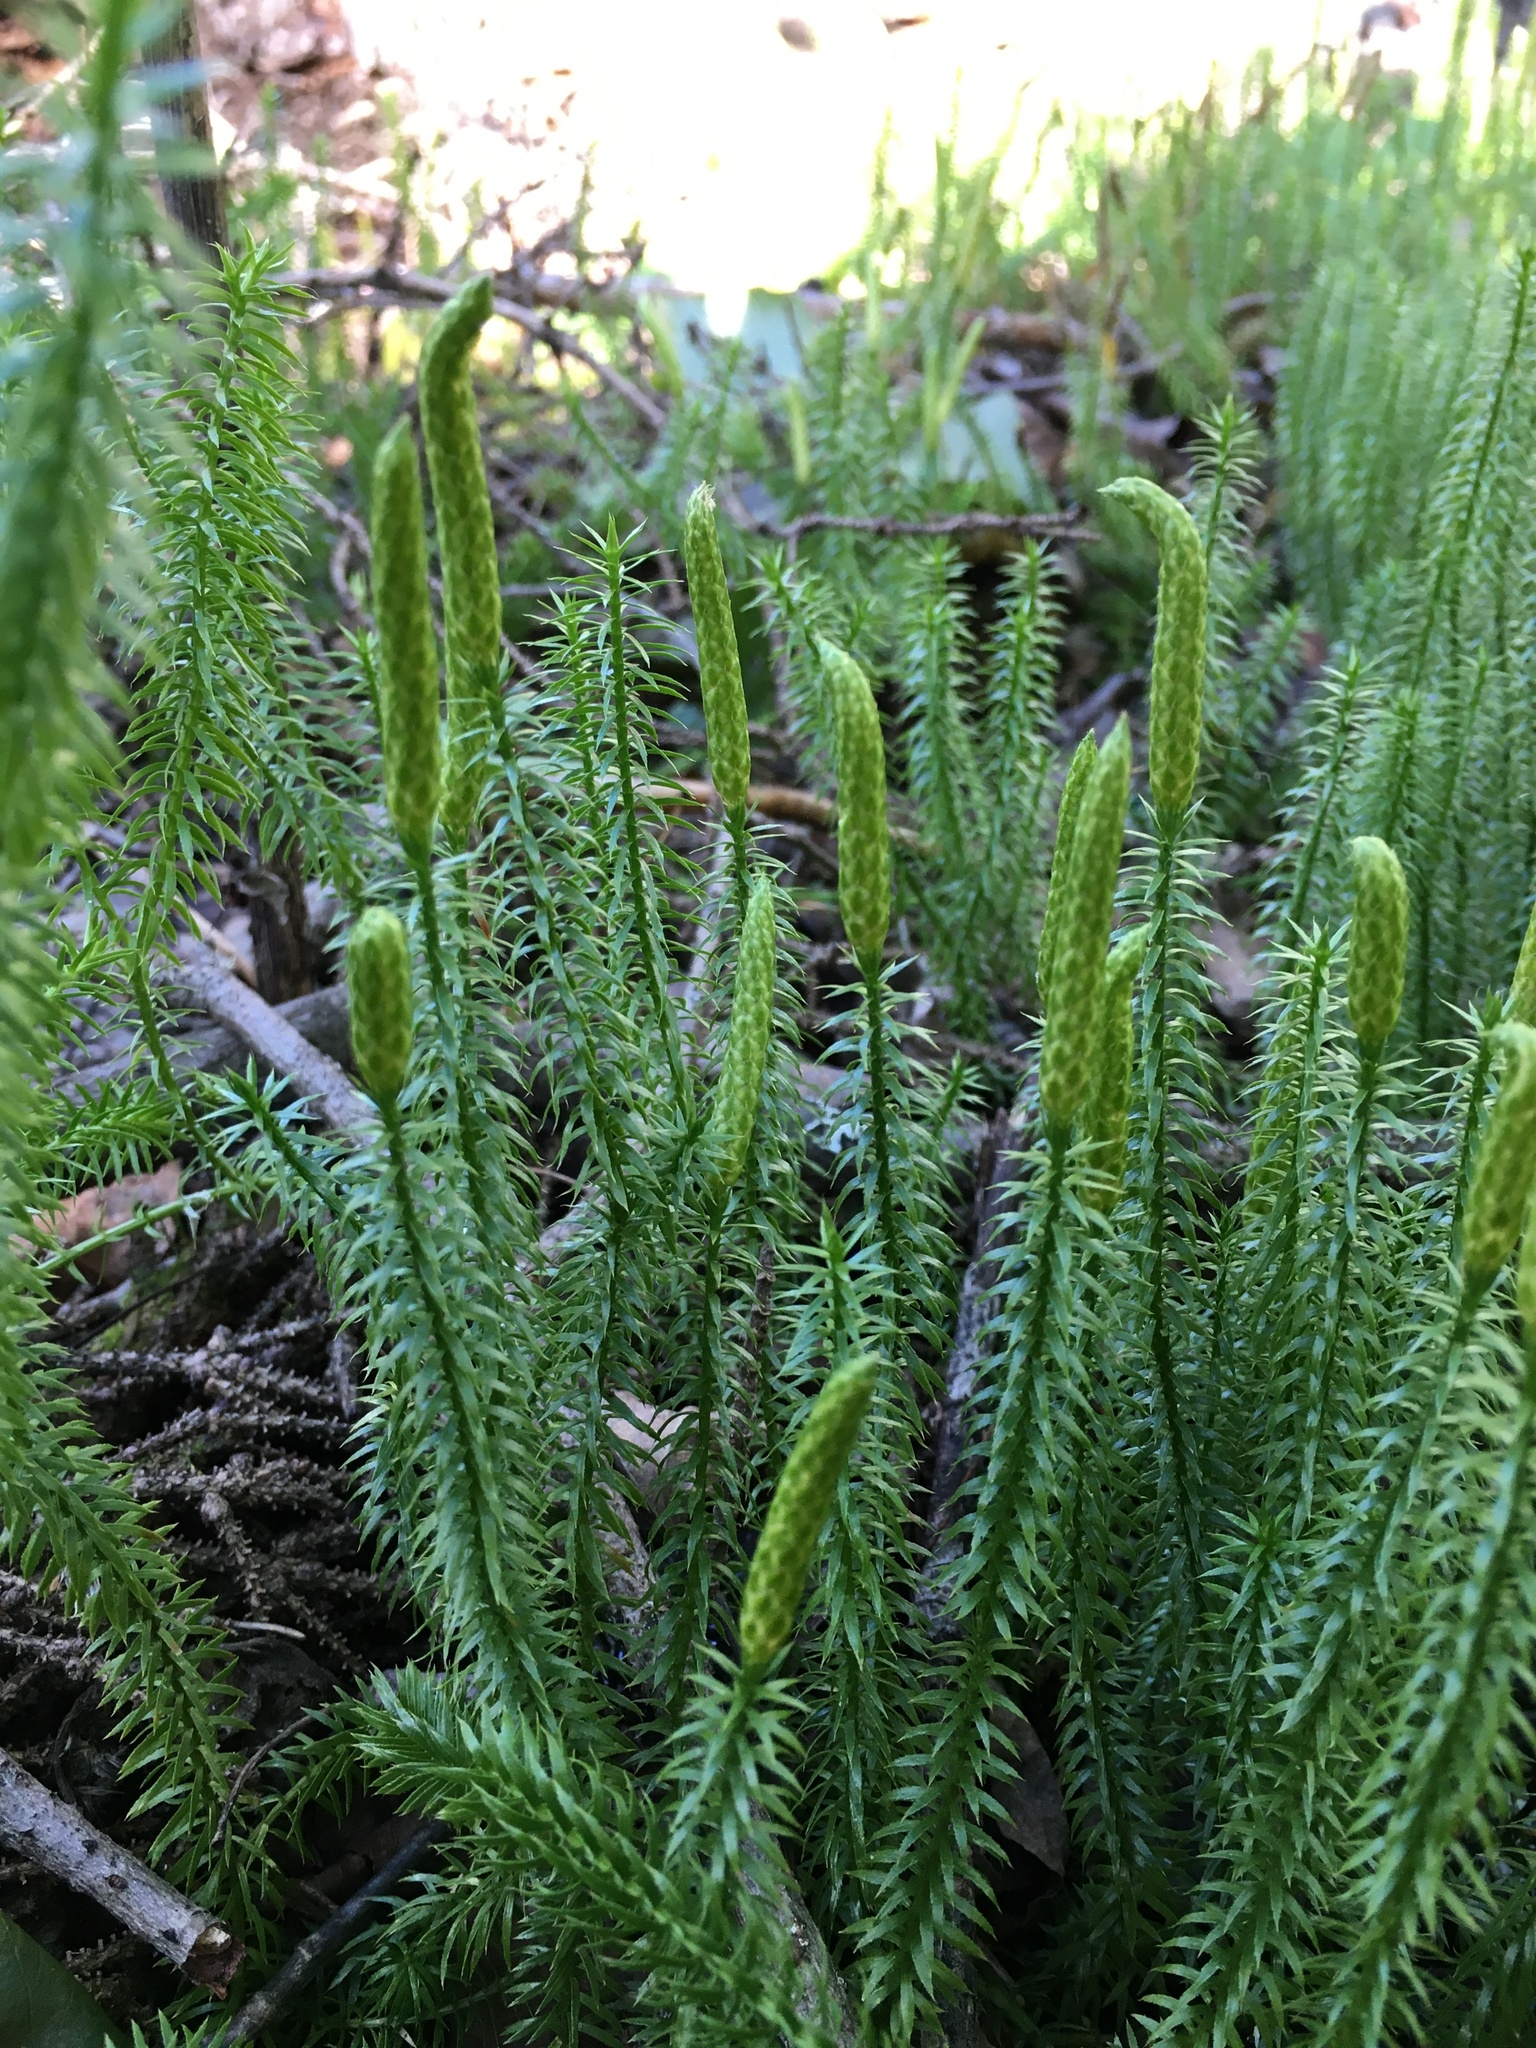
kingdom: Plantae
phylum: Tracheophyta
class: Lycopodiopsida
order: Lycopodiales
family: Lycopodiaceae
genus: Spinulum
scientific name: Spinulum annotinum
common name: Interrupted club-moss
